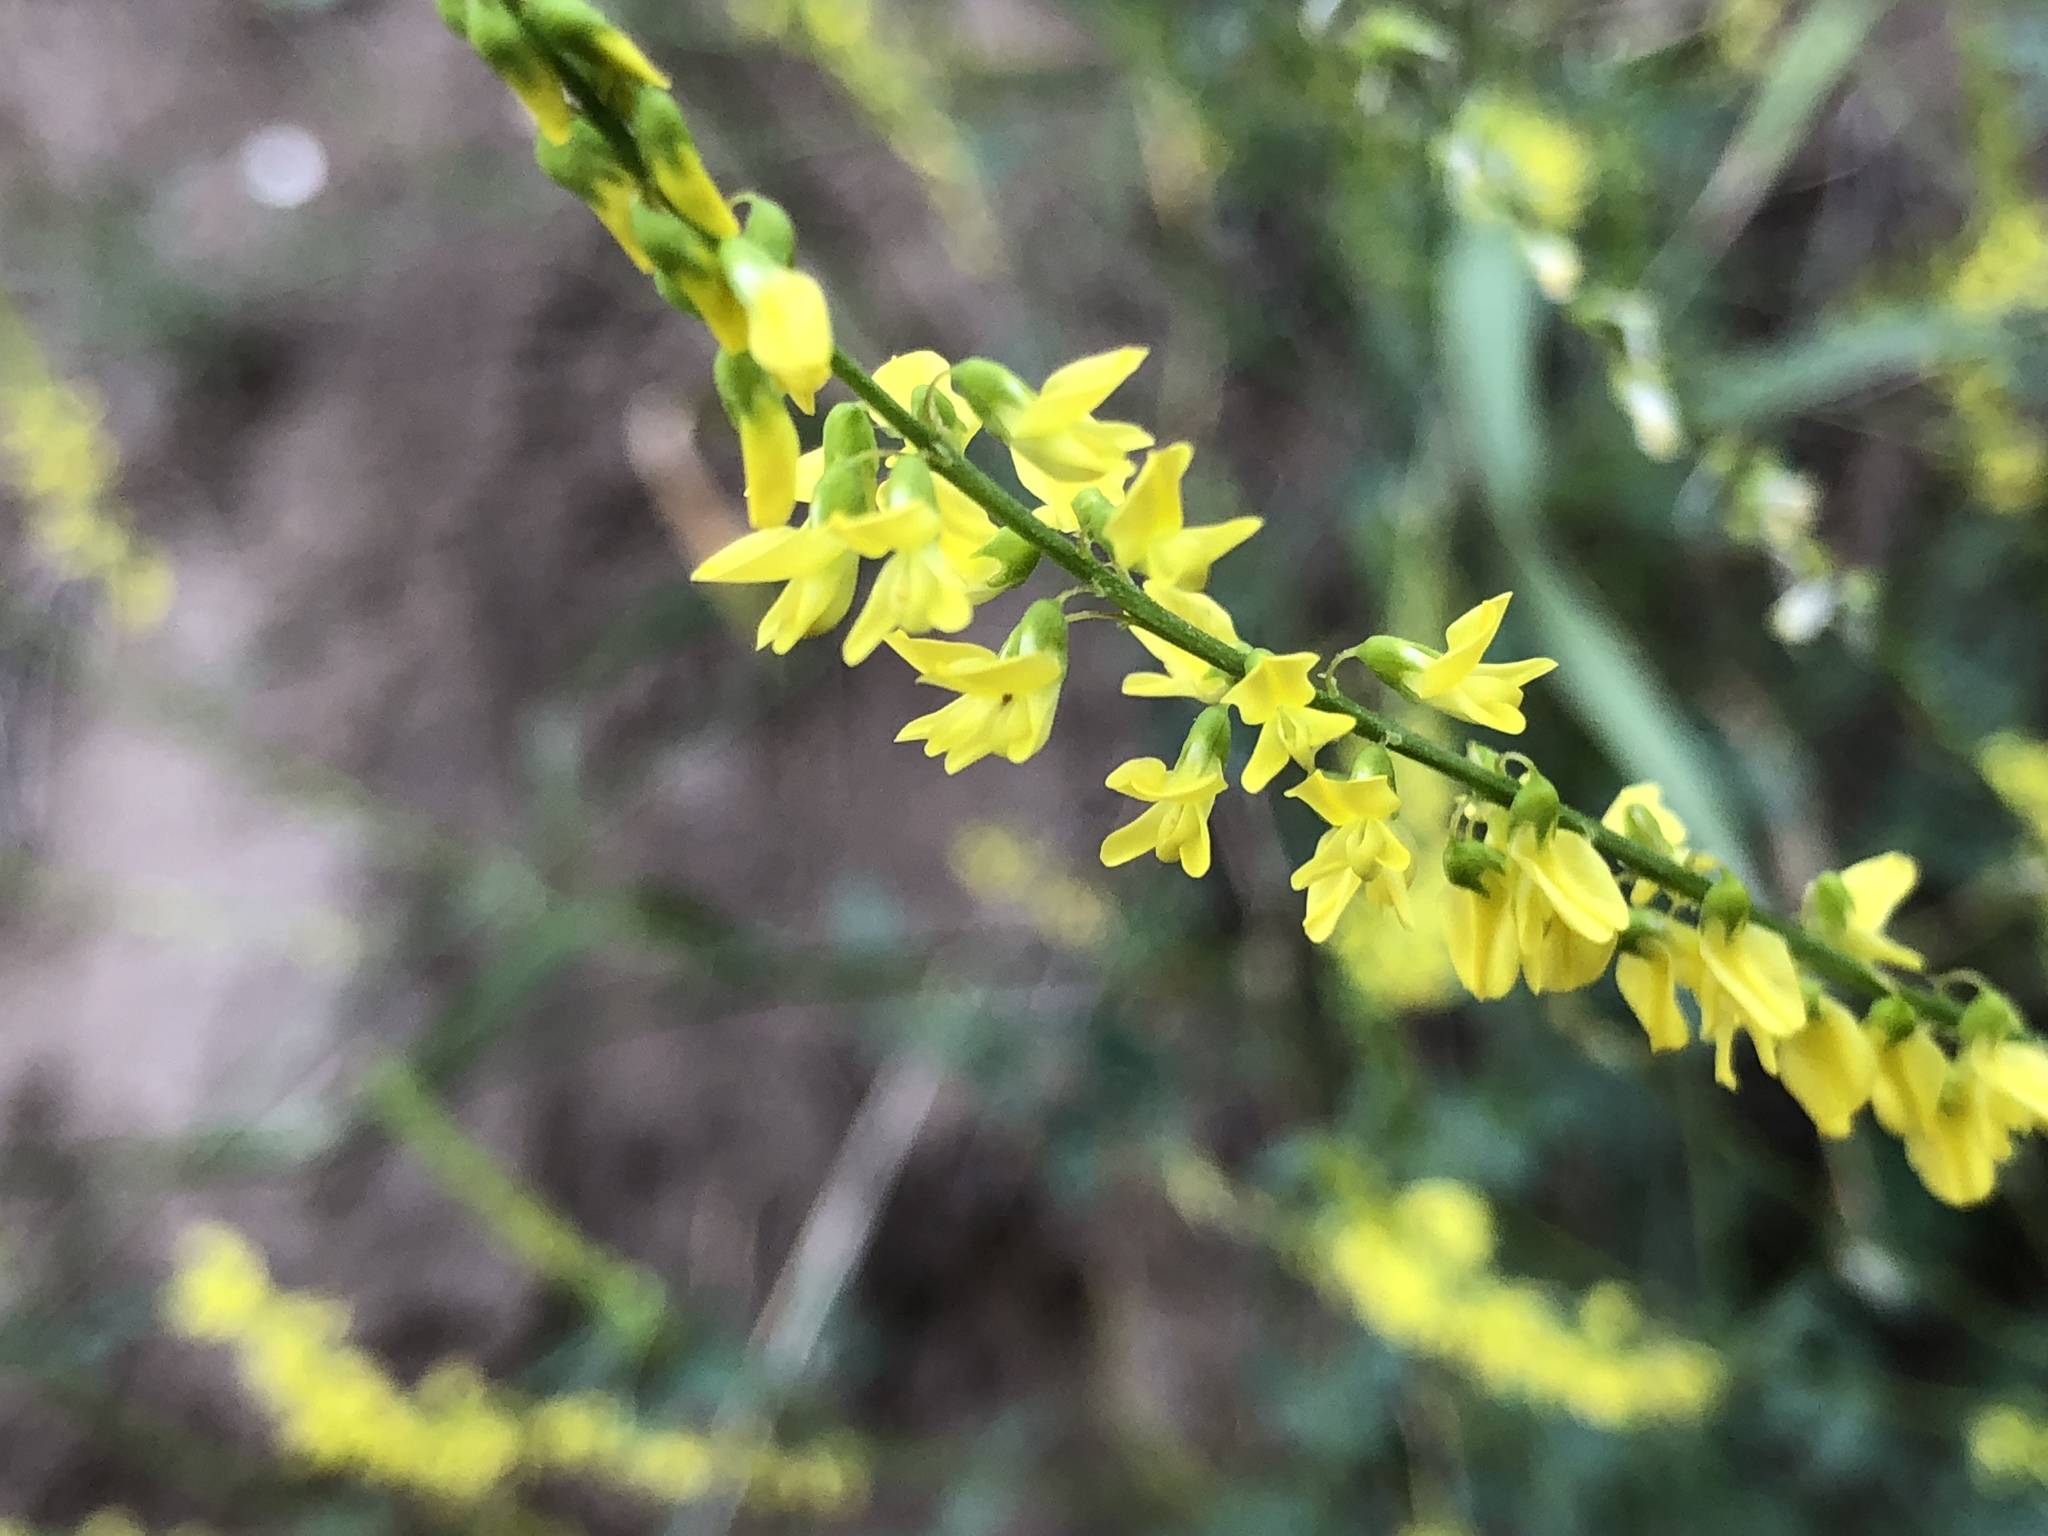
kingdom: Plantae
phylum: Tracheophyta
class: Magnoliopsida
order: Fabales
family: Fabaceae
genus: Melilotus
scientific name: Melilotus officinalis
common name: Sweetclover
